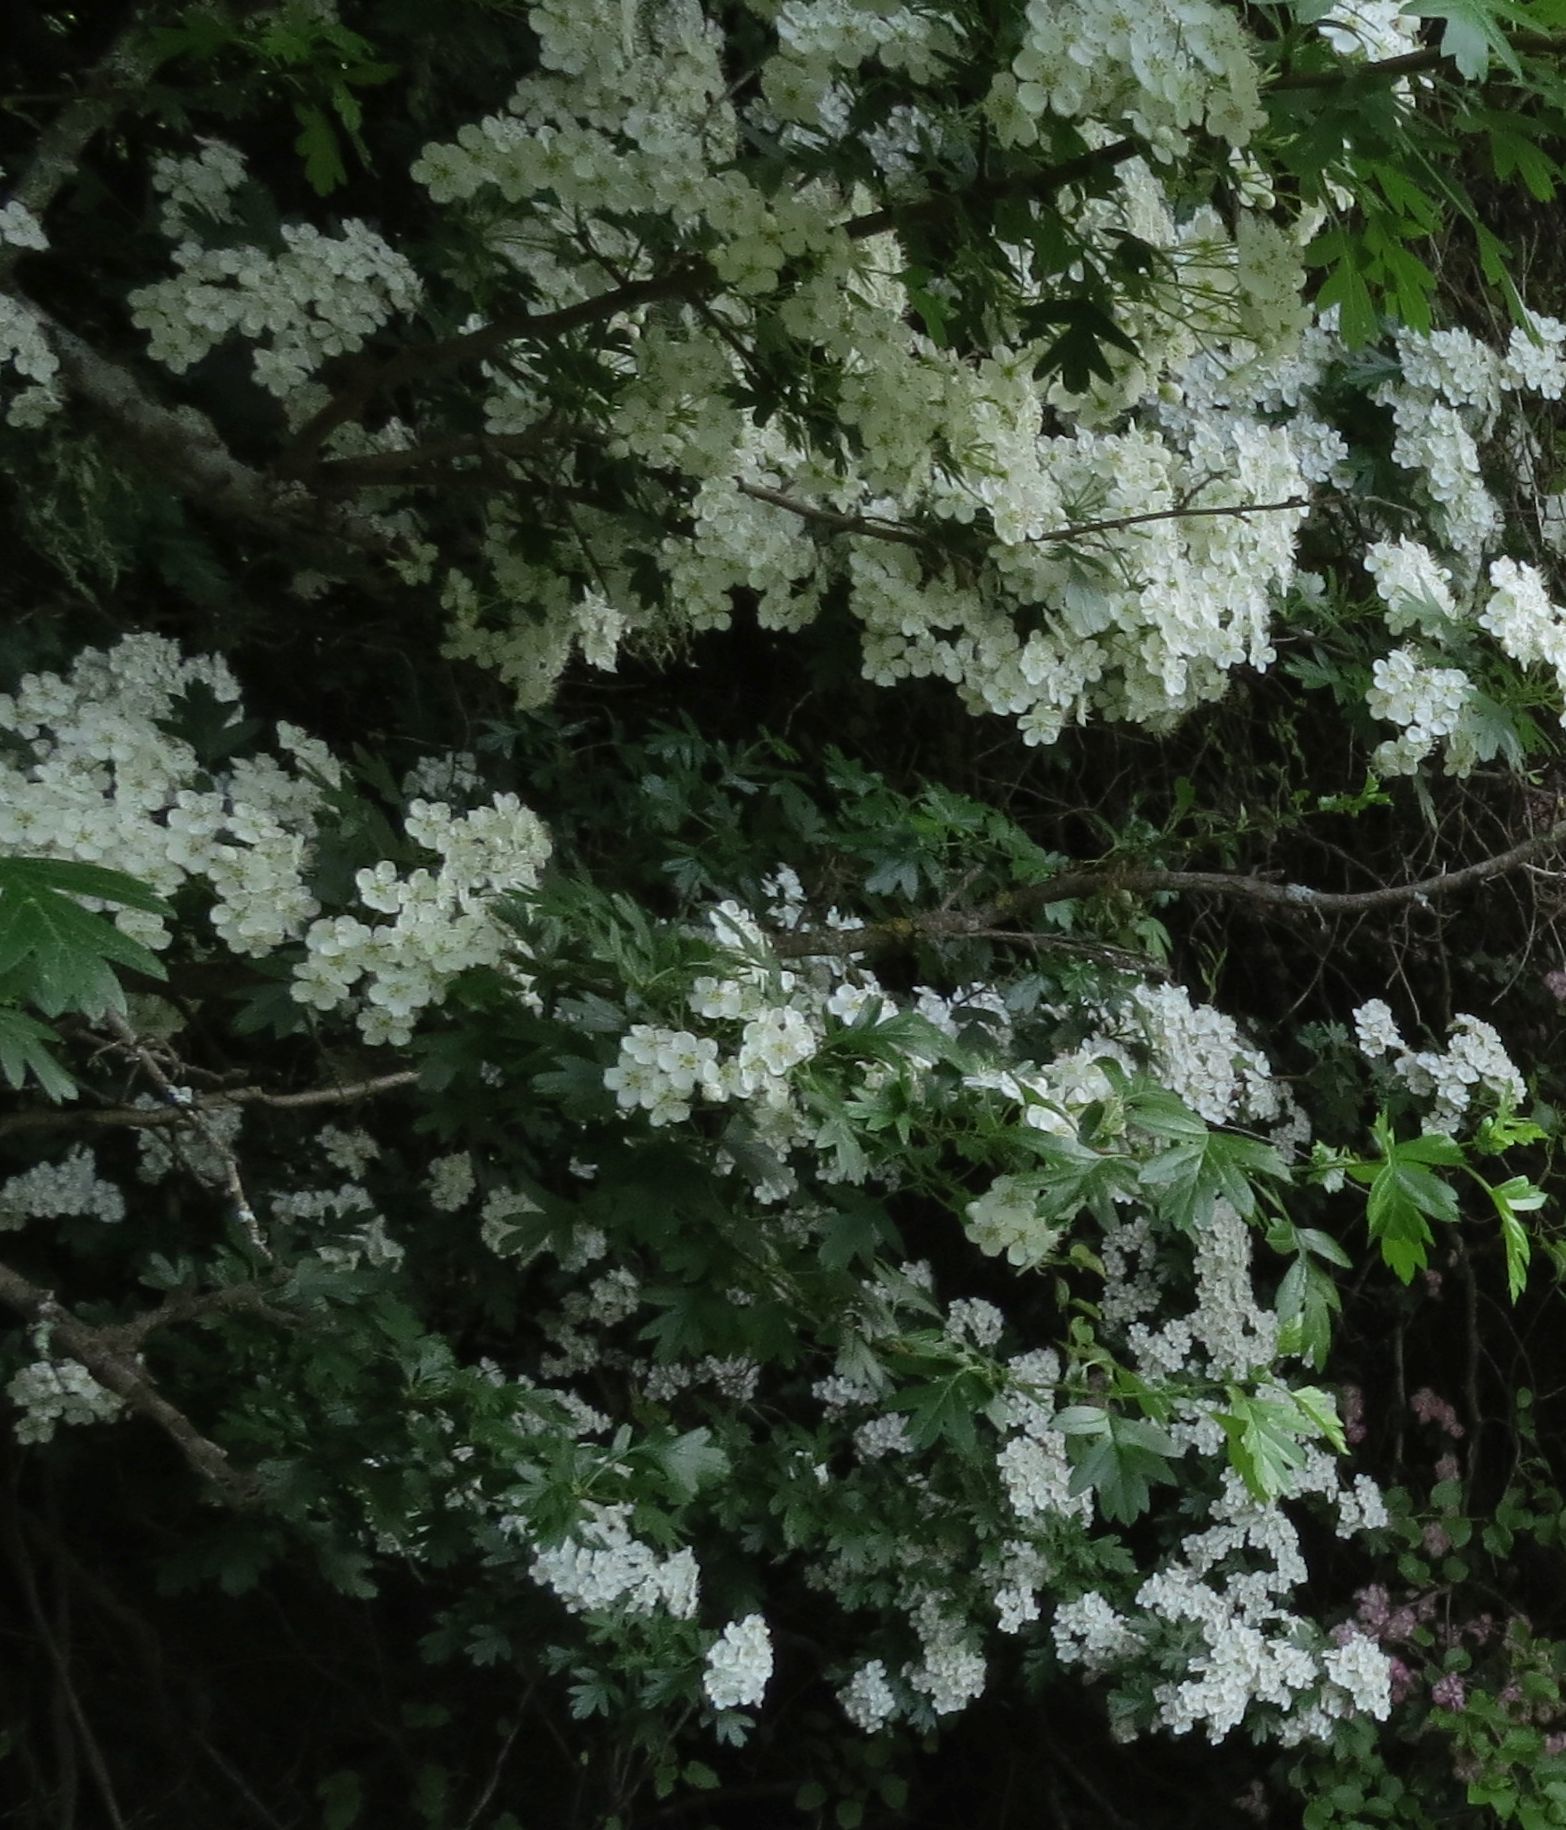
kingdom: Plantae
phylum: Tracheophyta
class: Magnoliopsida
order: Rosales
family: Rosaceae
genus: Crataegus
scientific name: Crataegus monogyna
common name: Hawthorn
